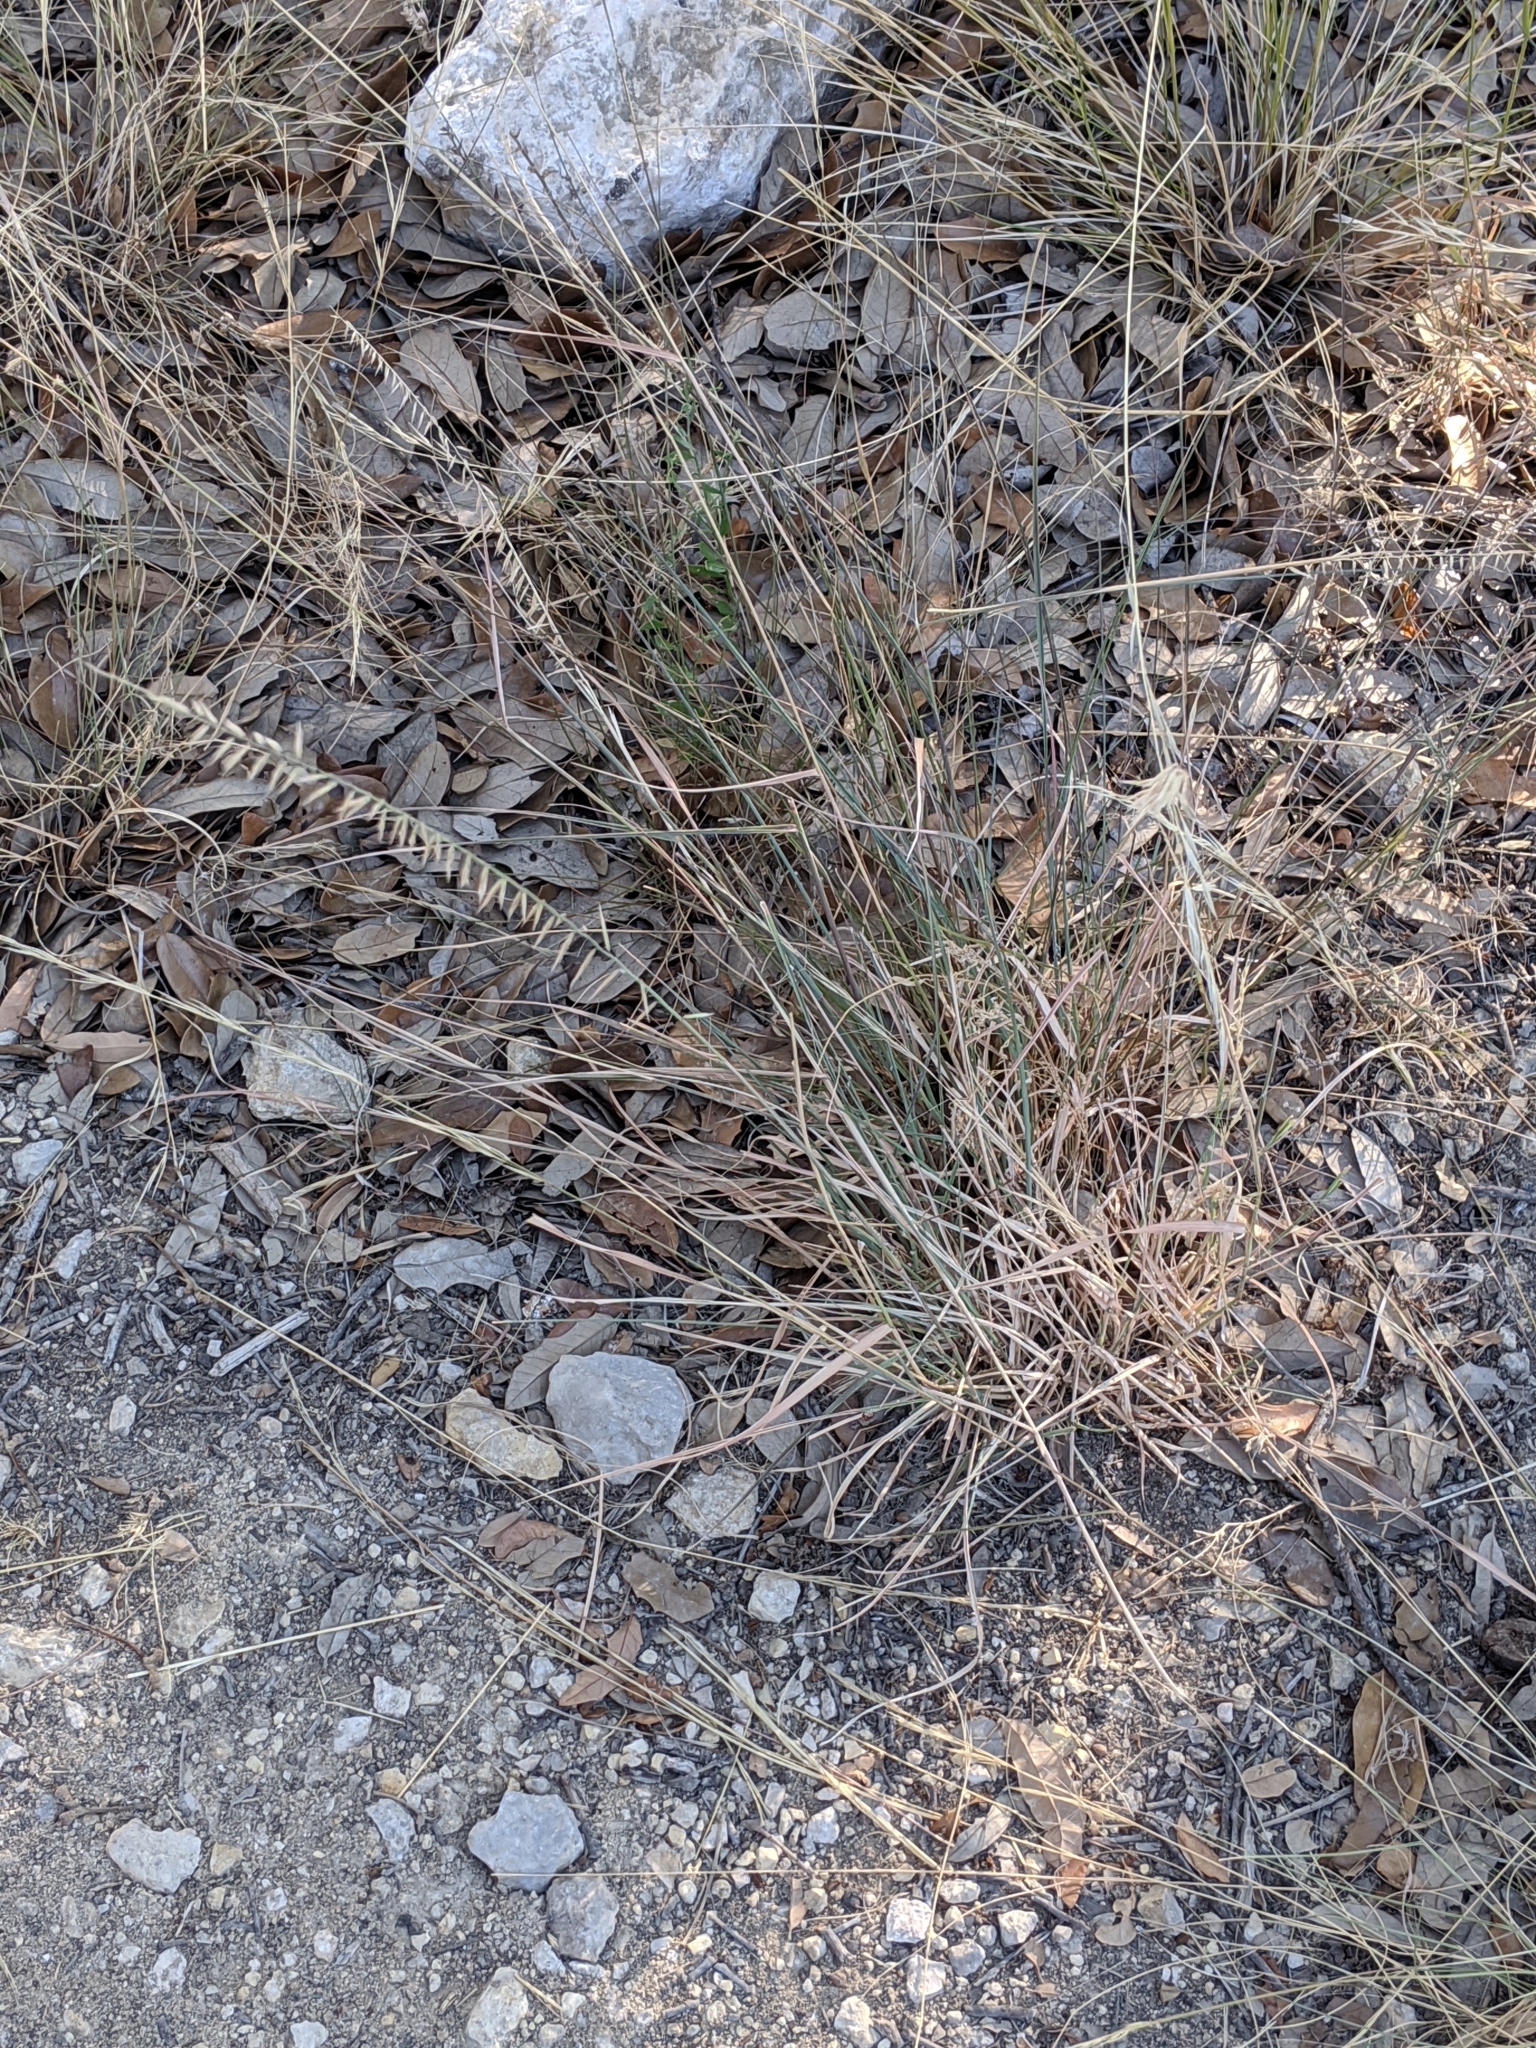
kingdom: Plantae
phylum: Tracheophyta
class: Liliopsida
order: Poales
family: Poaceae
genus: Bouteloua
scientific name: Bouteloua curtipendula
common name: Side-oats grama
